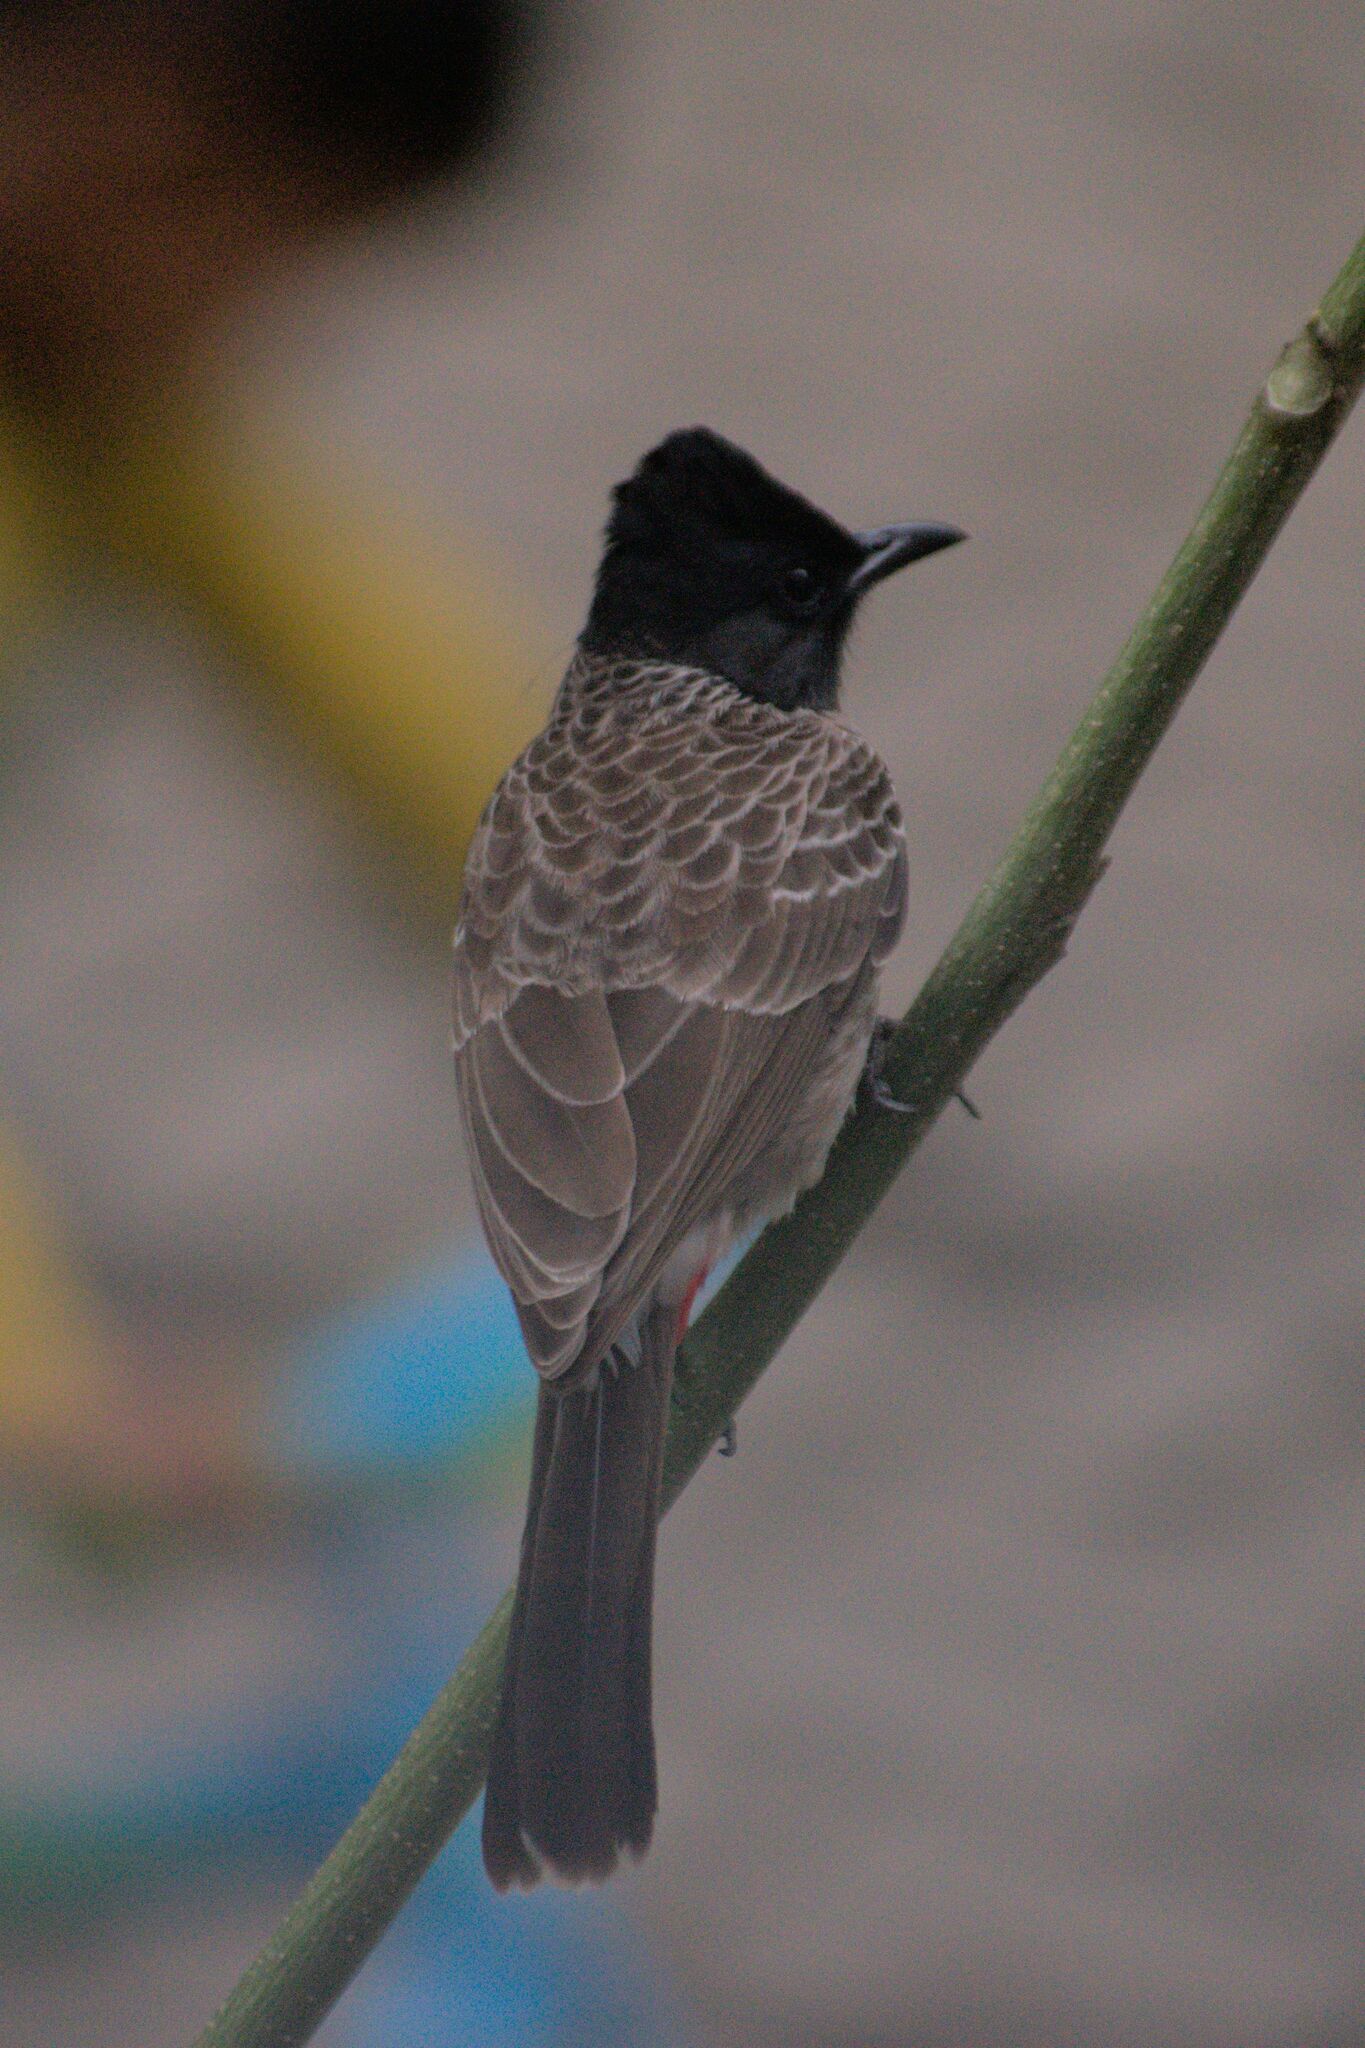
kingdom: Animalia
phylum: Chordata
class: Aves
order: Passeriformes
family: Pycnonotidae
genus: Pycnonotus
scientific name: Pycnonotus cafer
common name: Red-vented bulbul
